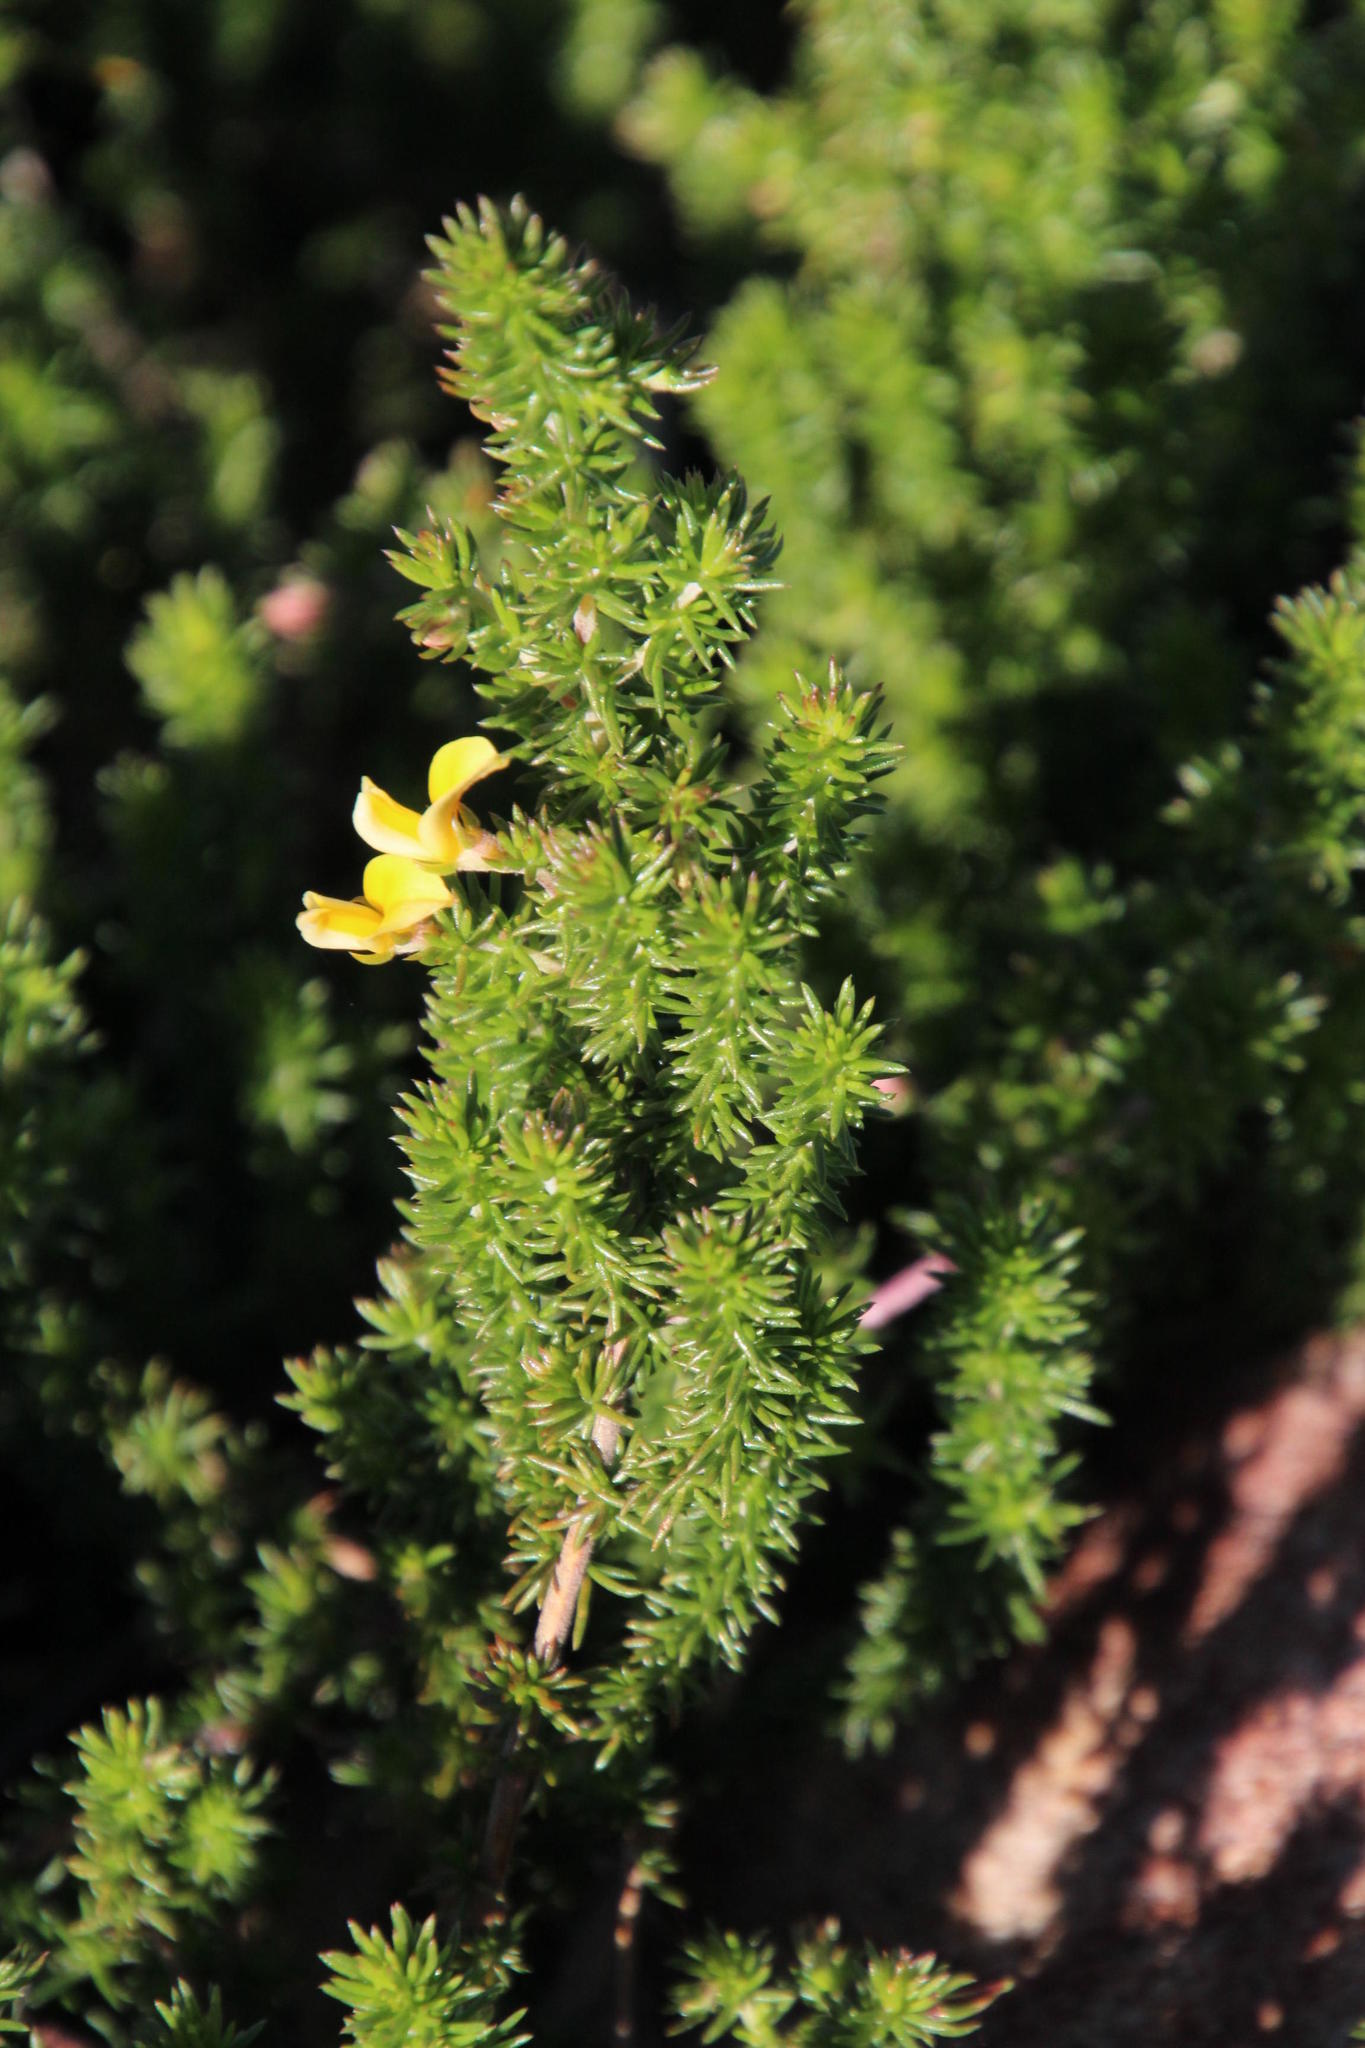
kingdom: Plantae
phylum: Tracheophyta
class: Magnoliopsida
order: Fabales
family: Fabaceae
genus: Aspalathus
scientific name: Aspalathus retroflexa
